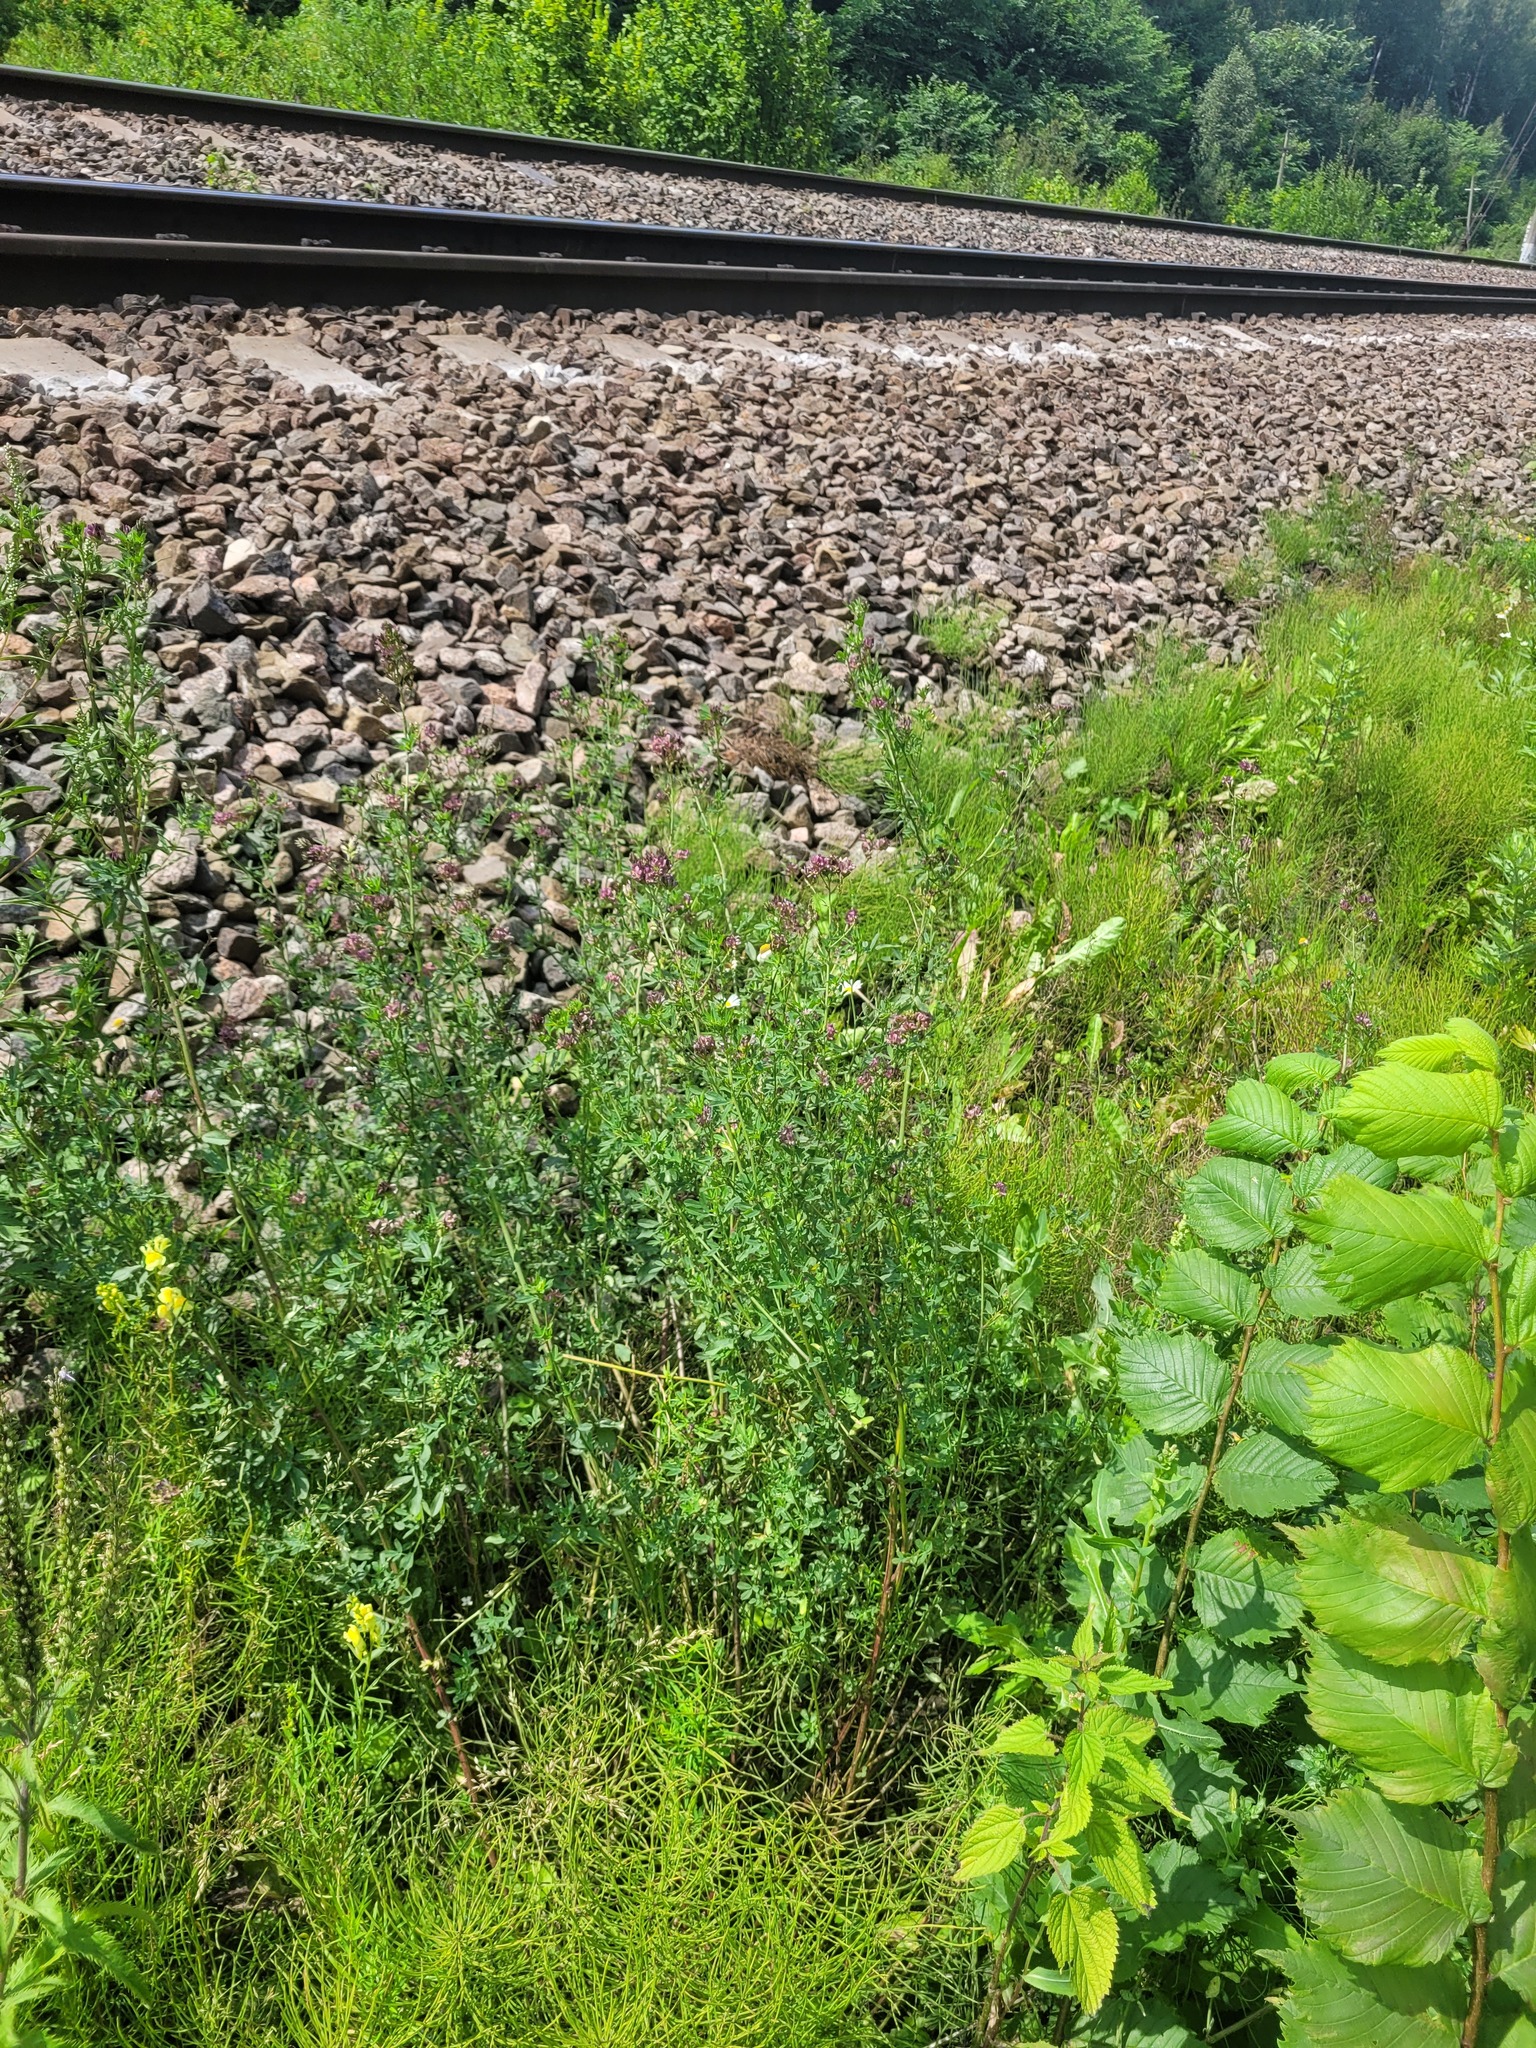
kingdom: Plantae
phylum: Tracheophyta
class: Magnoliopsida
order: Fabales
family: Fabaceae
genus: Medicago
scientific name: Medicago varia
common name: Sand lucerne
